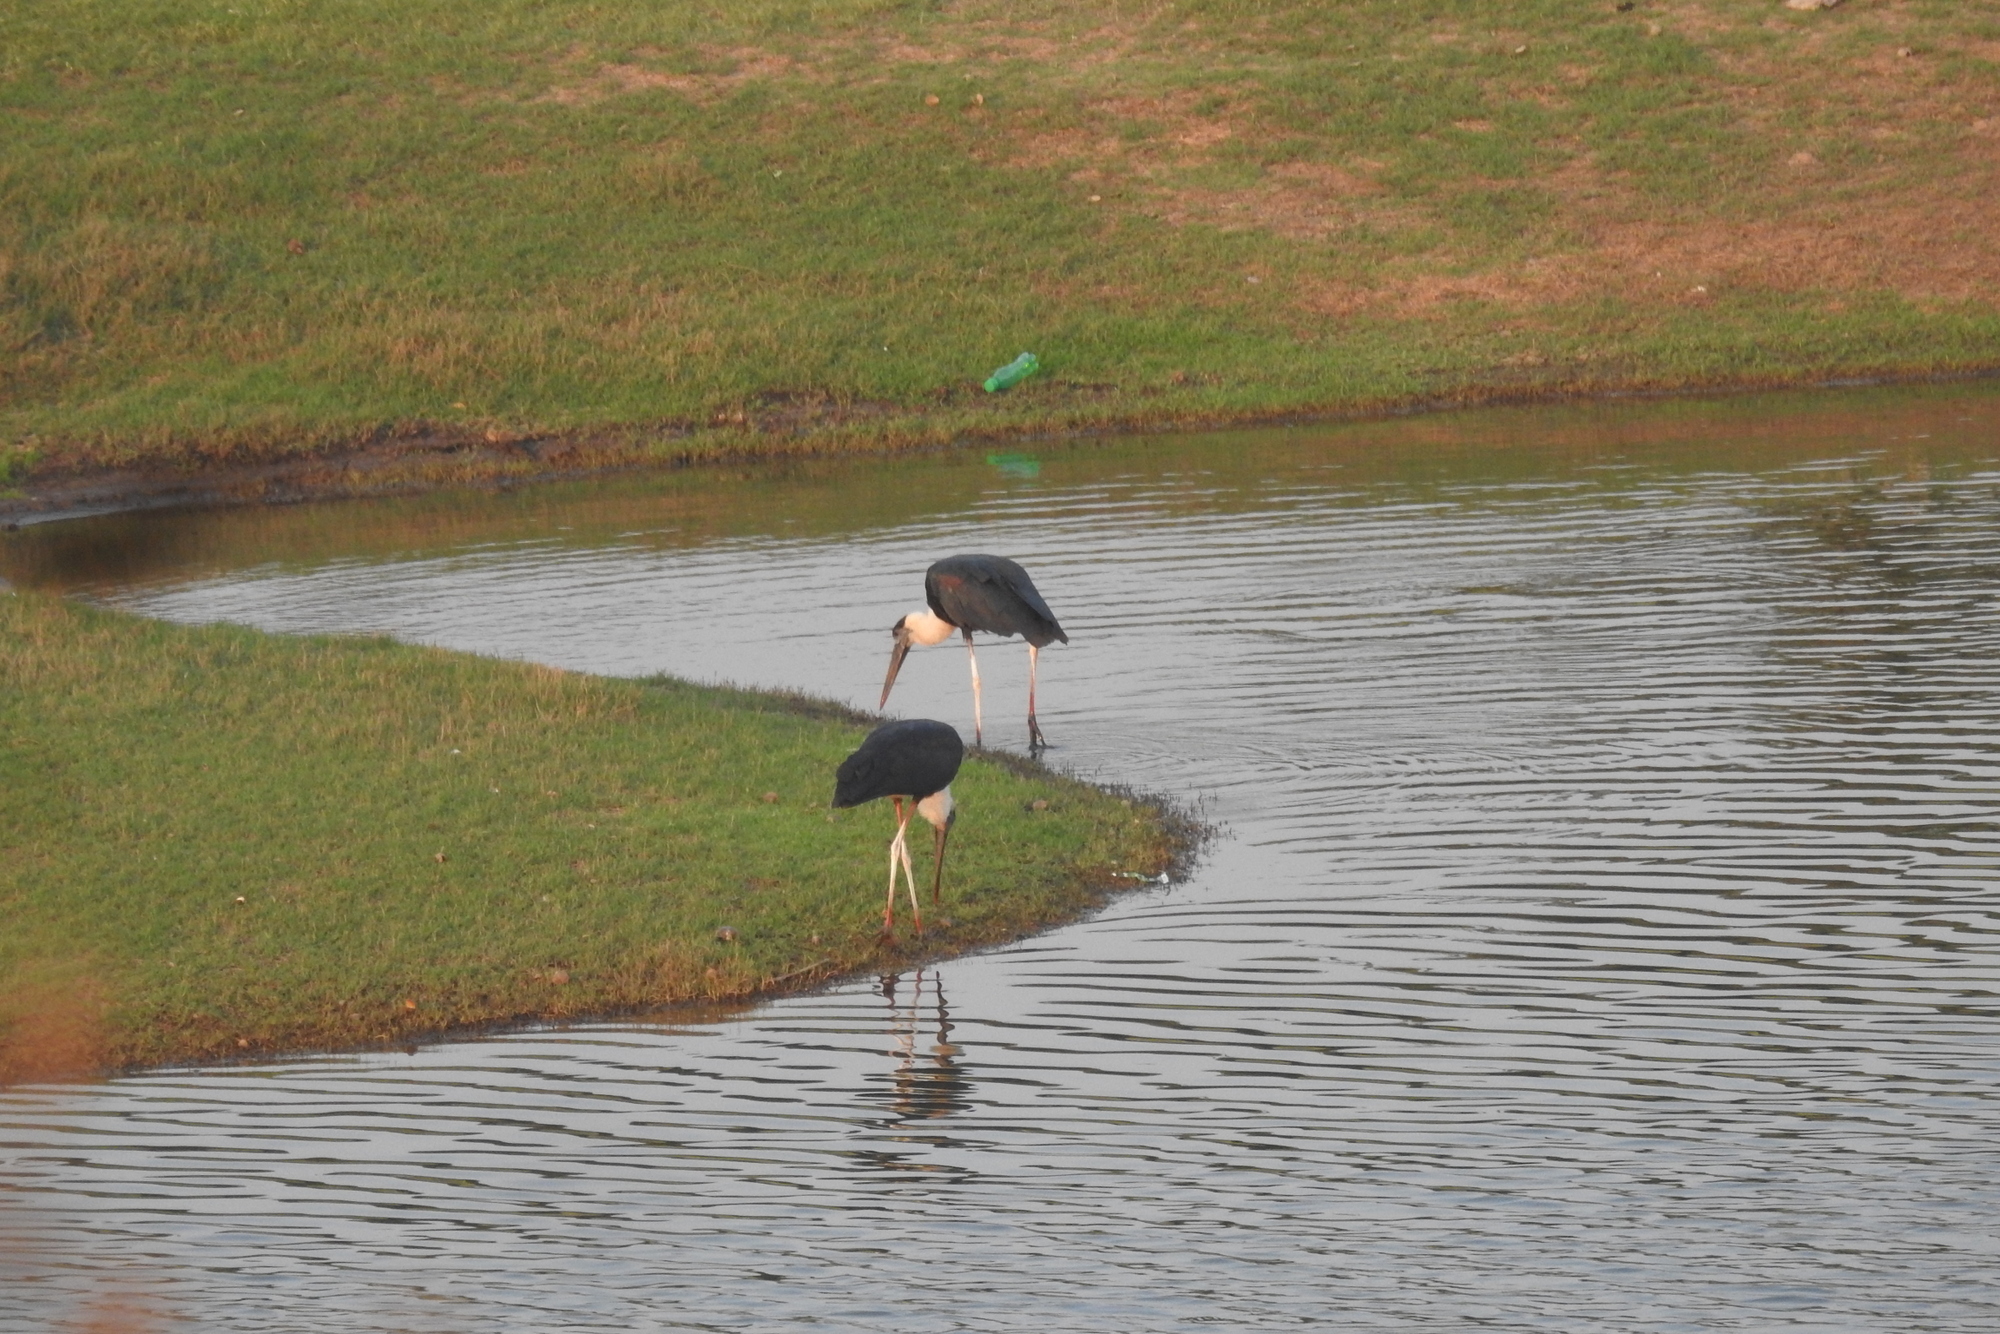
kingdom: Animalia
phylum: Chordata
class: Aves
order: Ciconiiformes
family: Ciconiidae
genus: Ciconia
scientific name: Ciconia episcopus
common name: Woolly-necked stork
